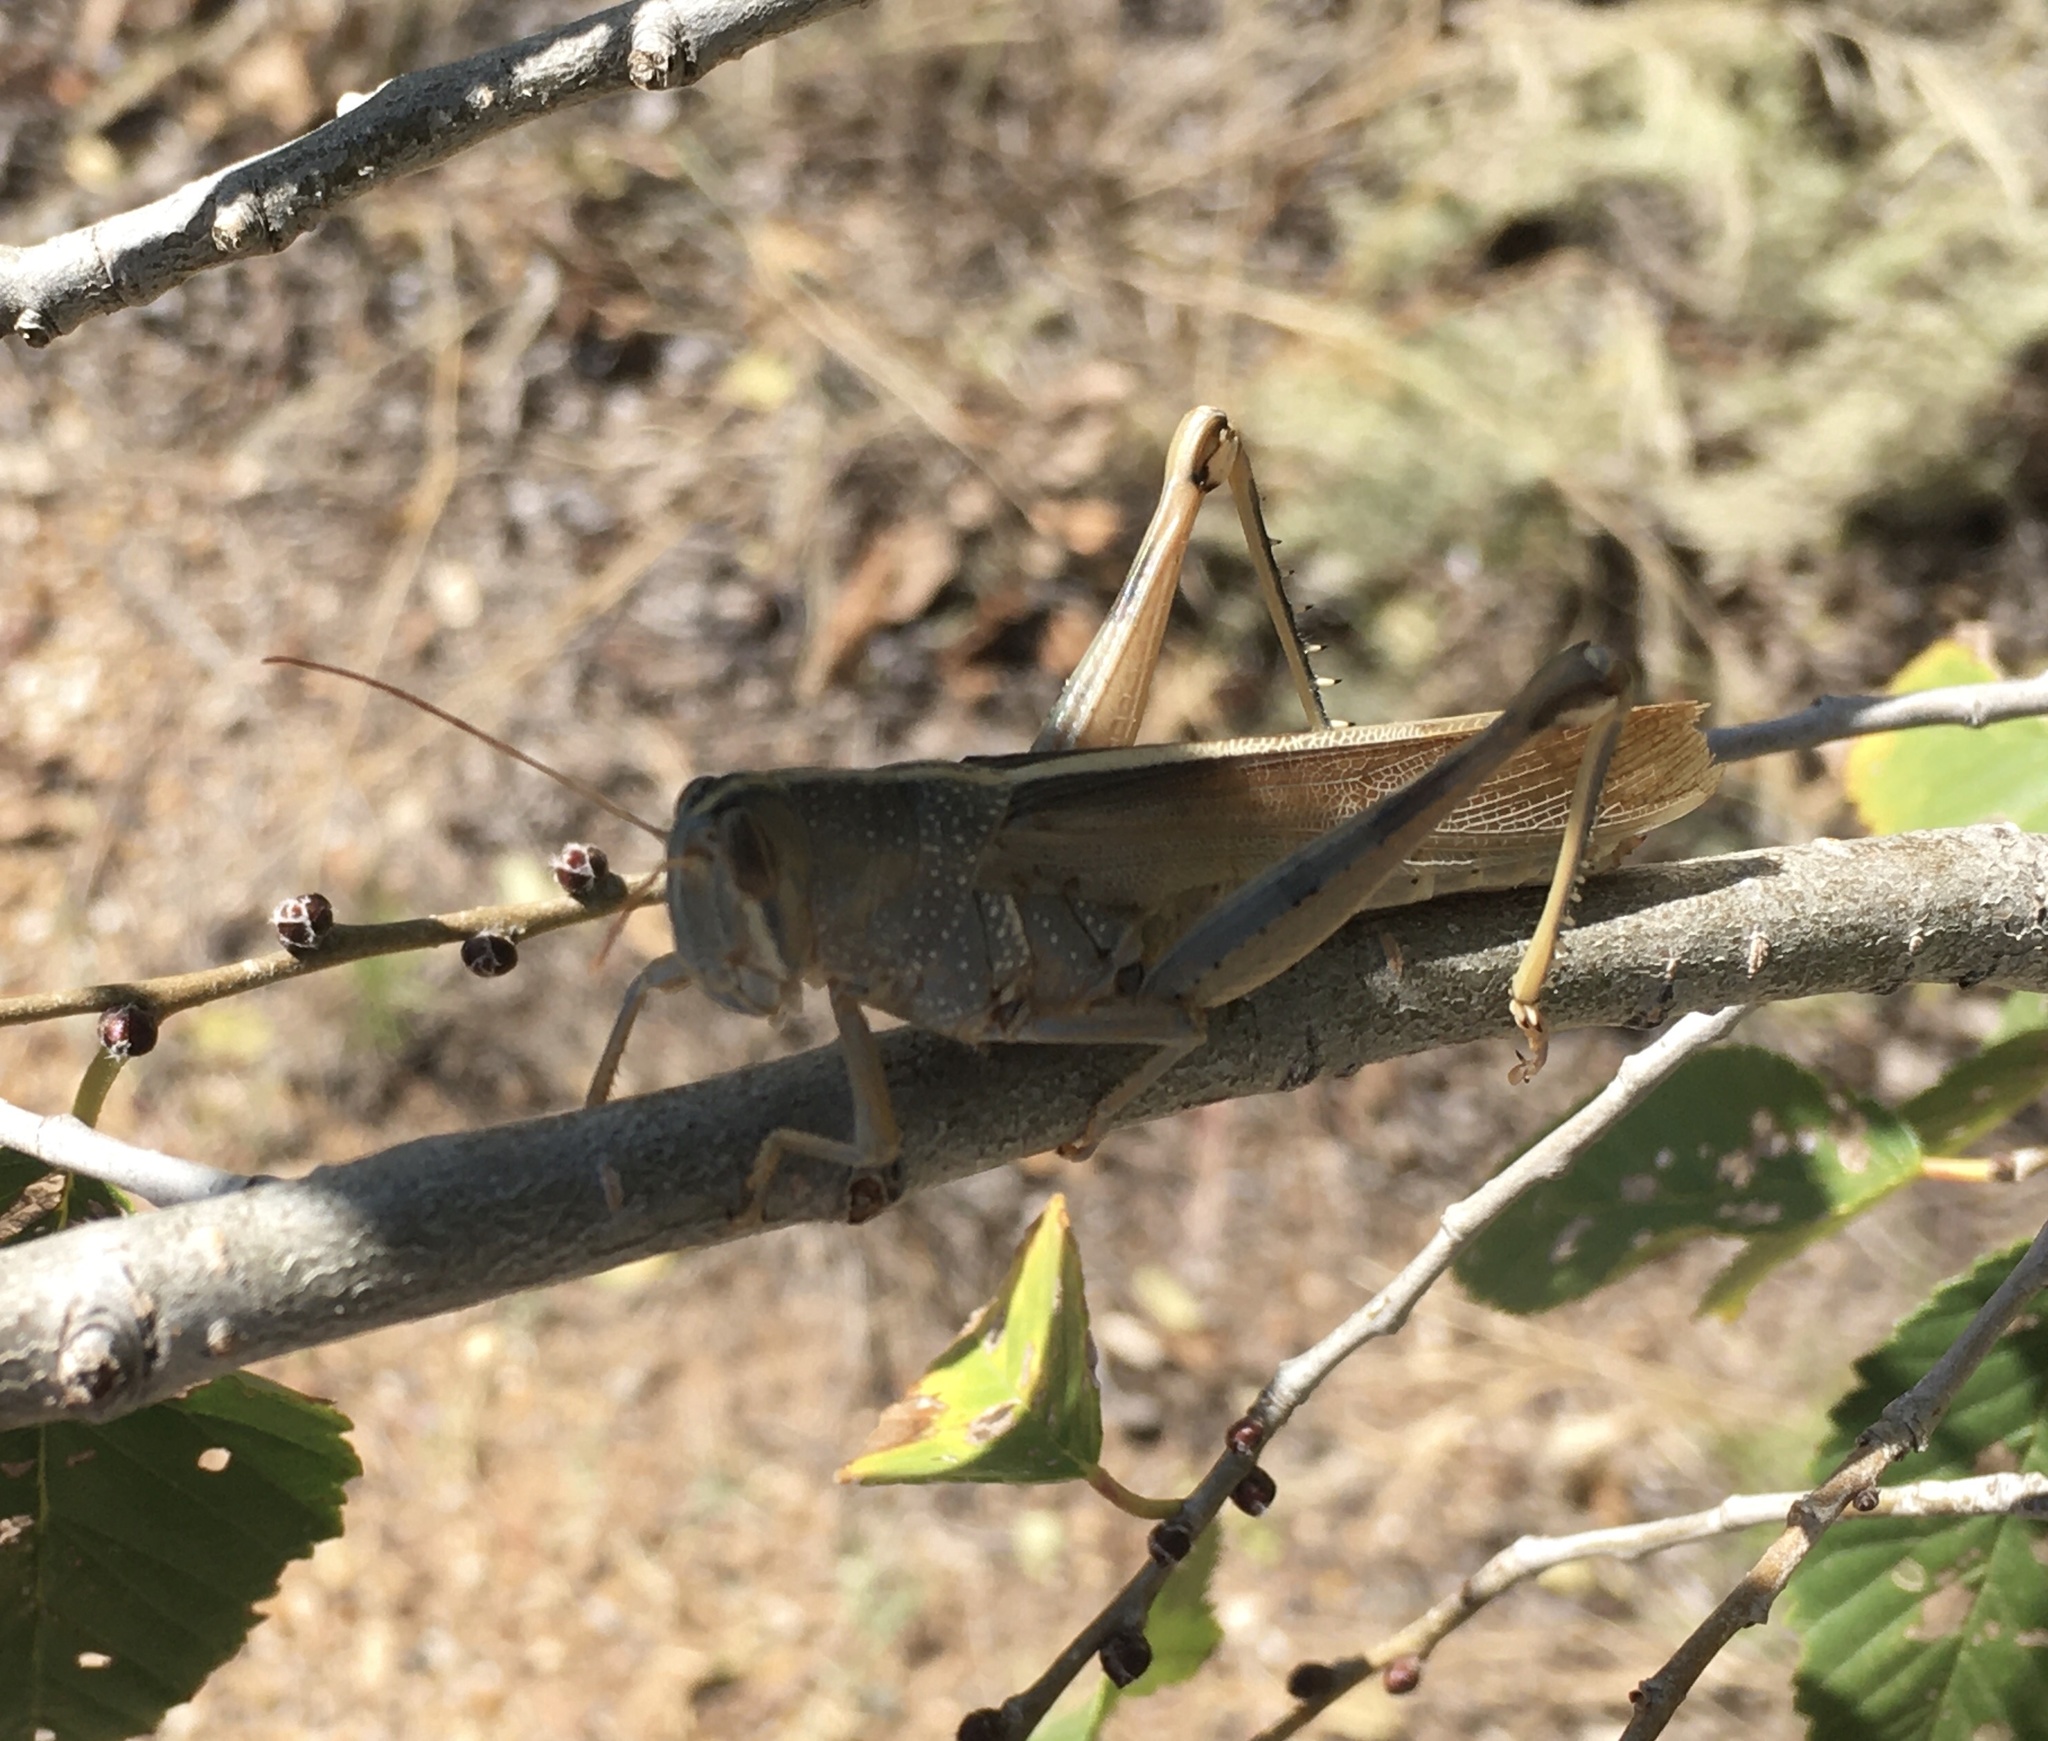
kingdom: Animalia
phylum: Arthropoda
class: Insecta
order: Orthoptera
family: Acrididae
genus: Schistocerca
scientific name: Schistocerca lineata
